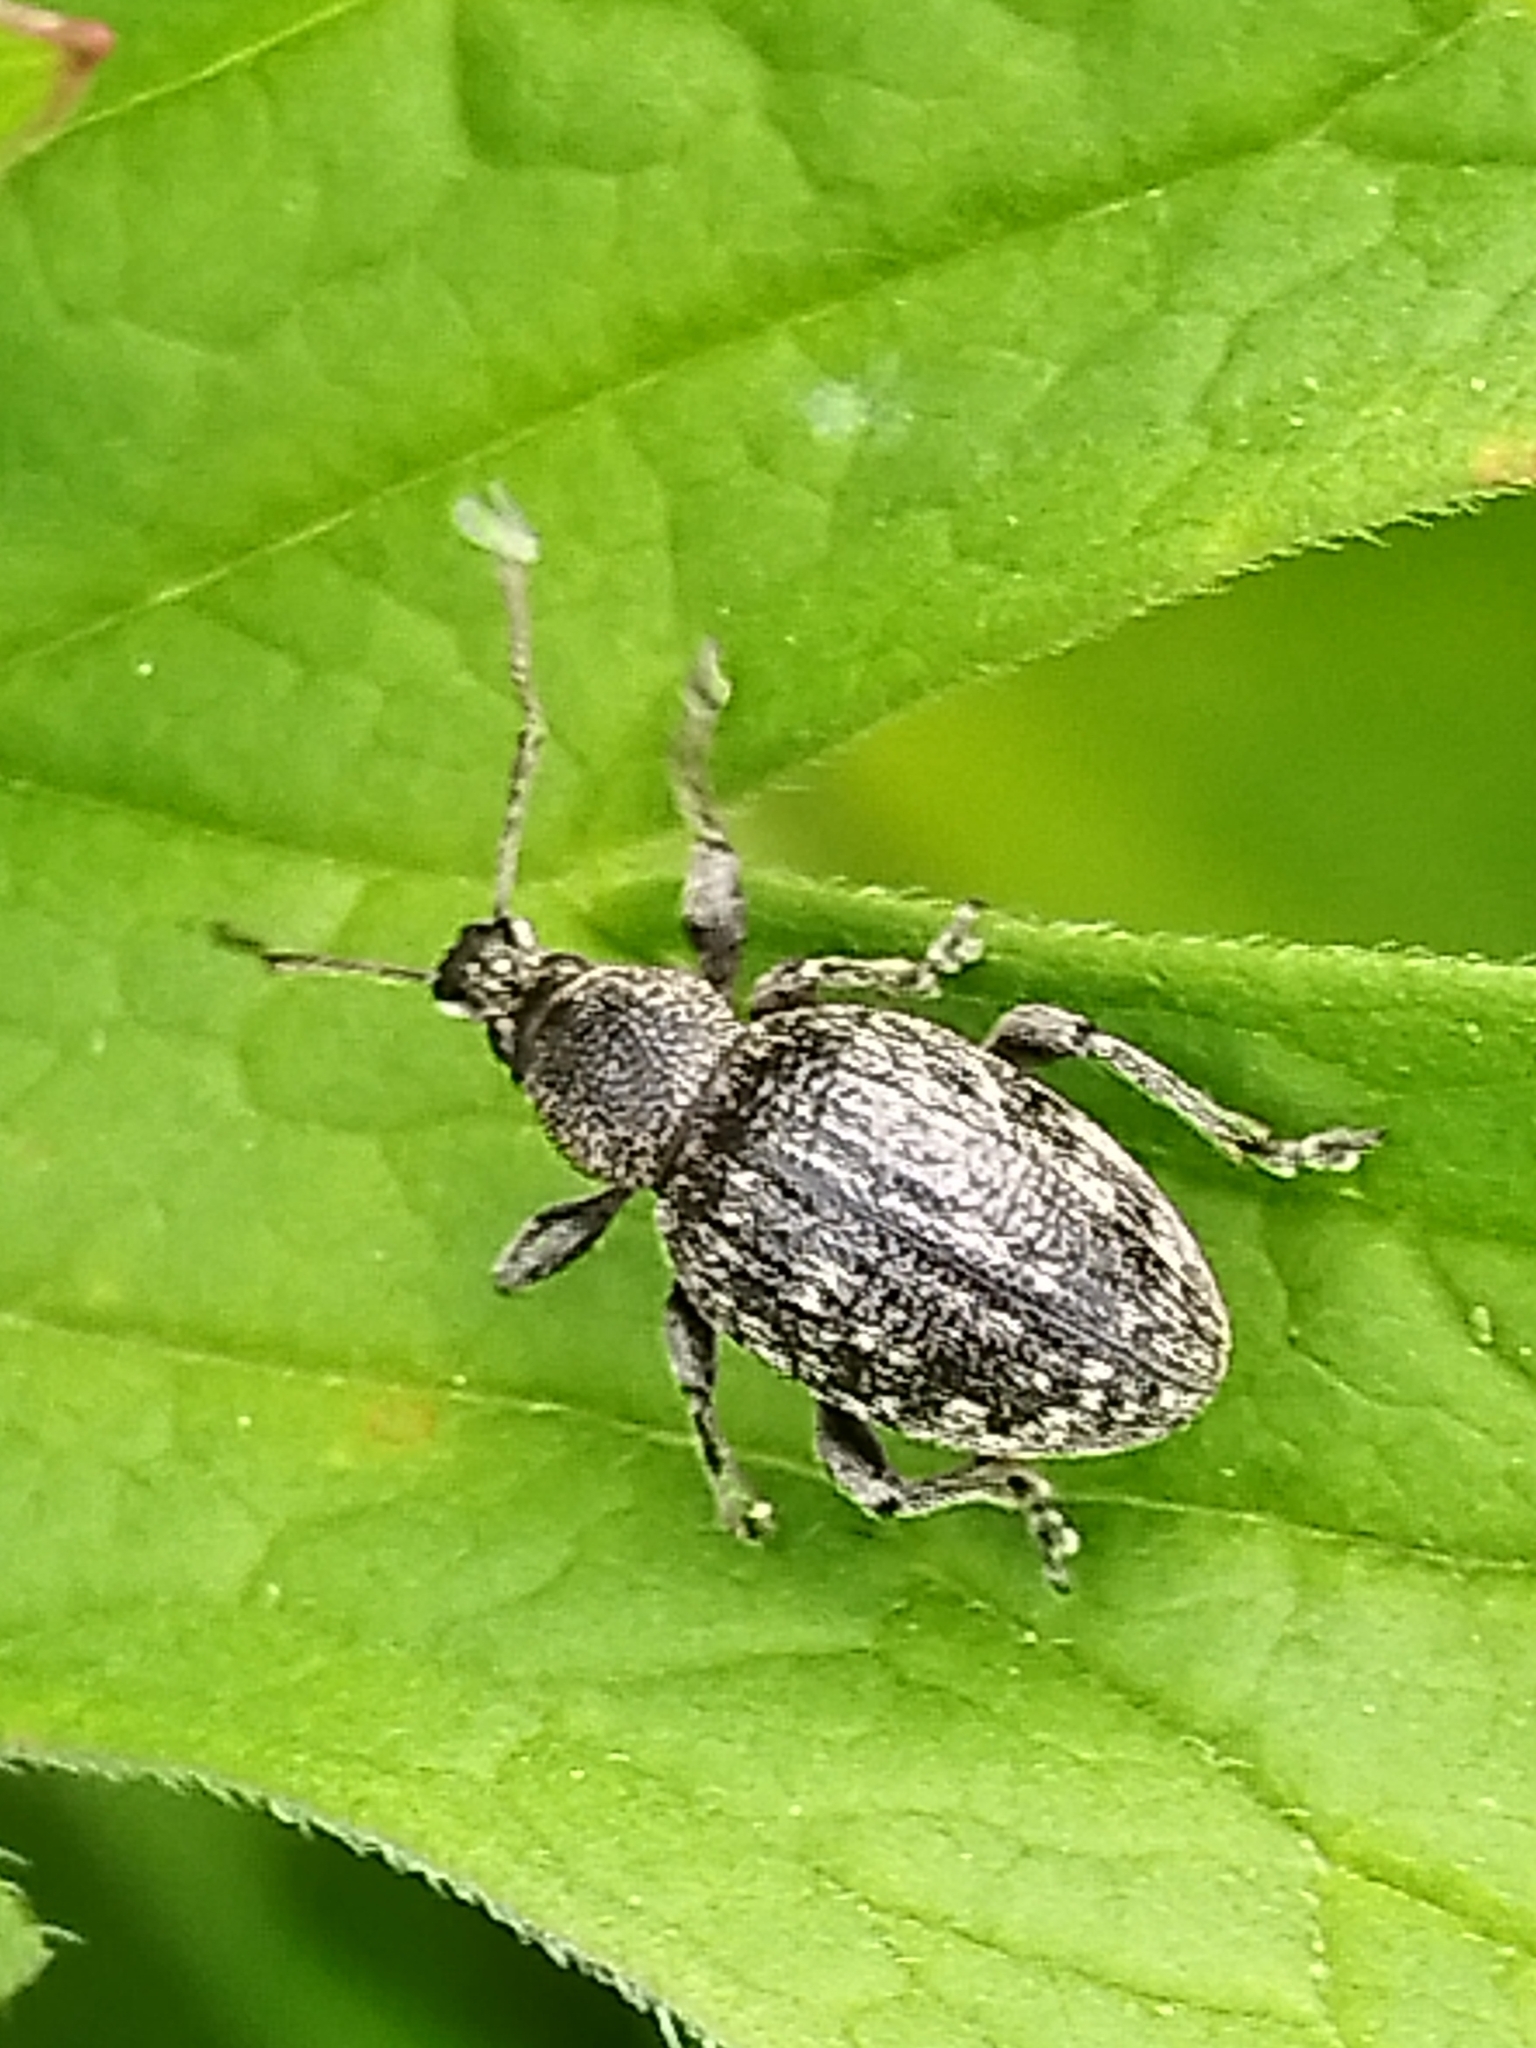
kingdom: Animalia
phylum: Arthropoda
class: Insecta
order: Coleoptera
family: Curculionidae
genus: Otiorhynchus
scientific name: Otiorhynchus tristis
